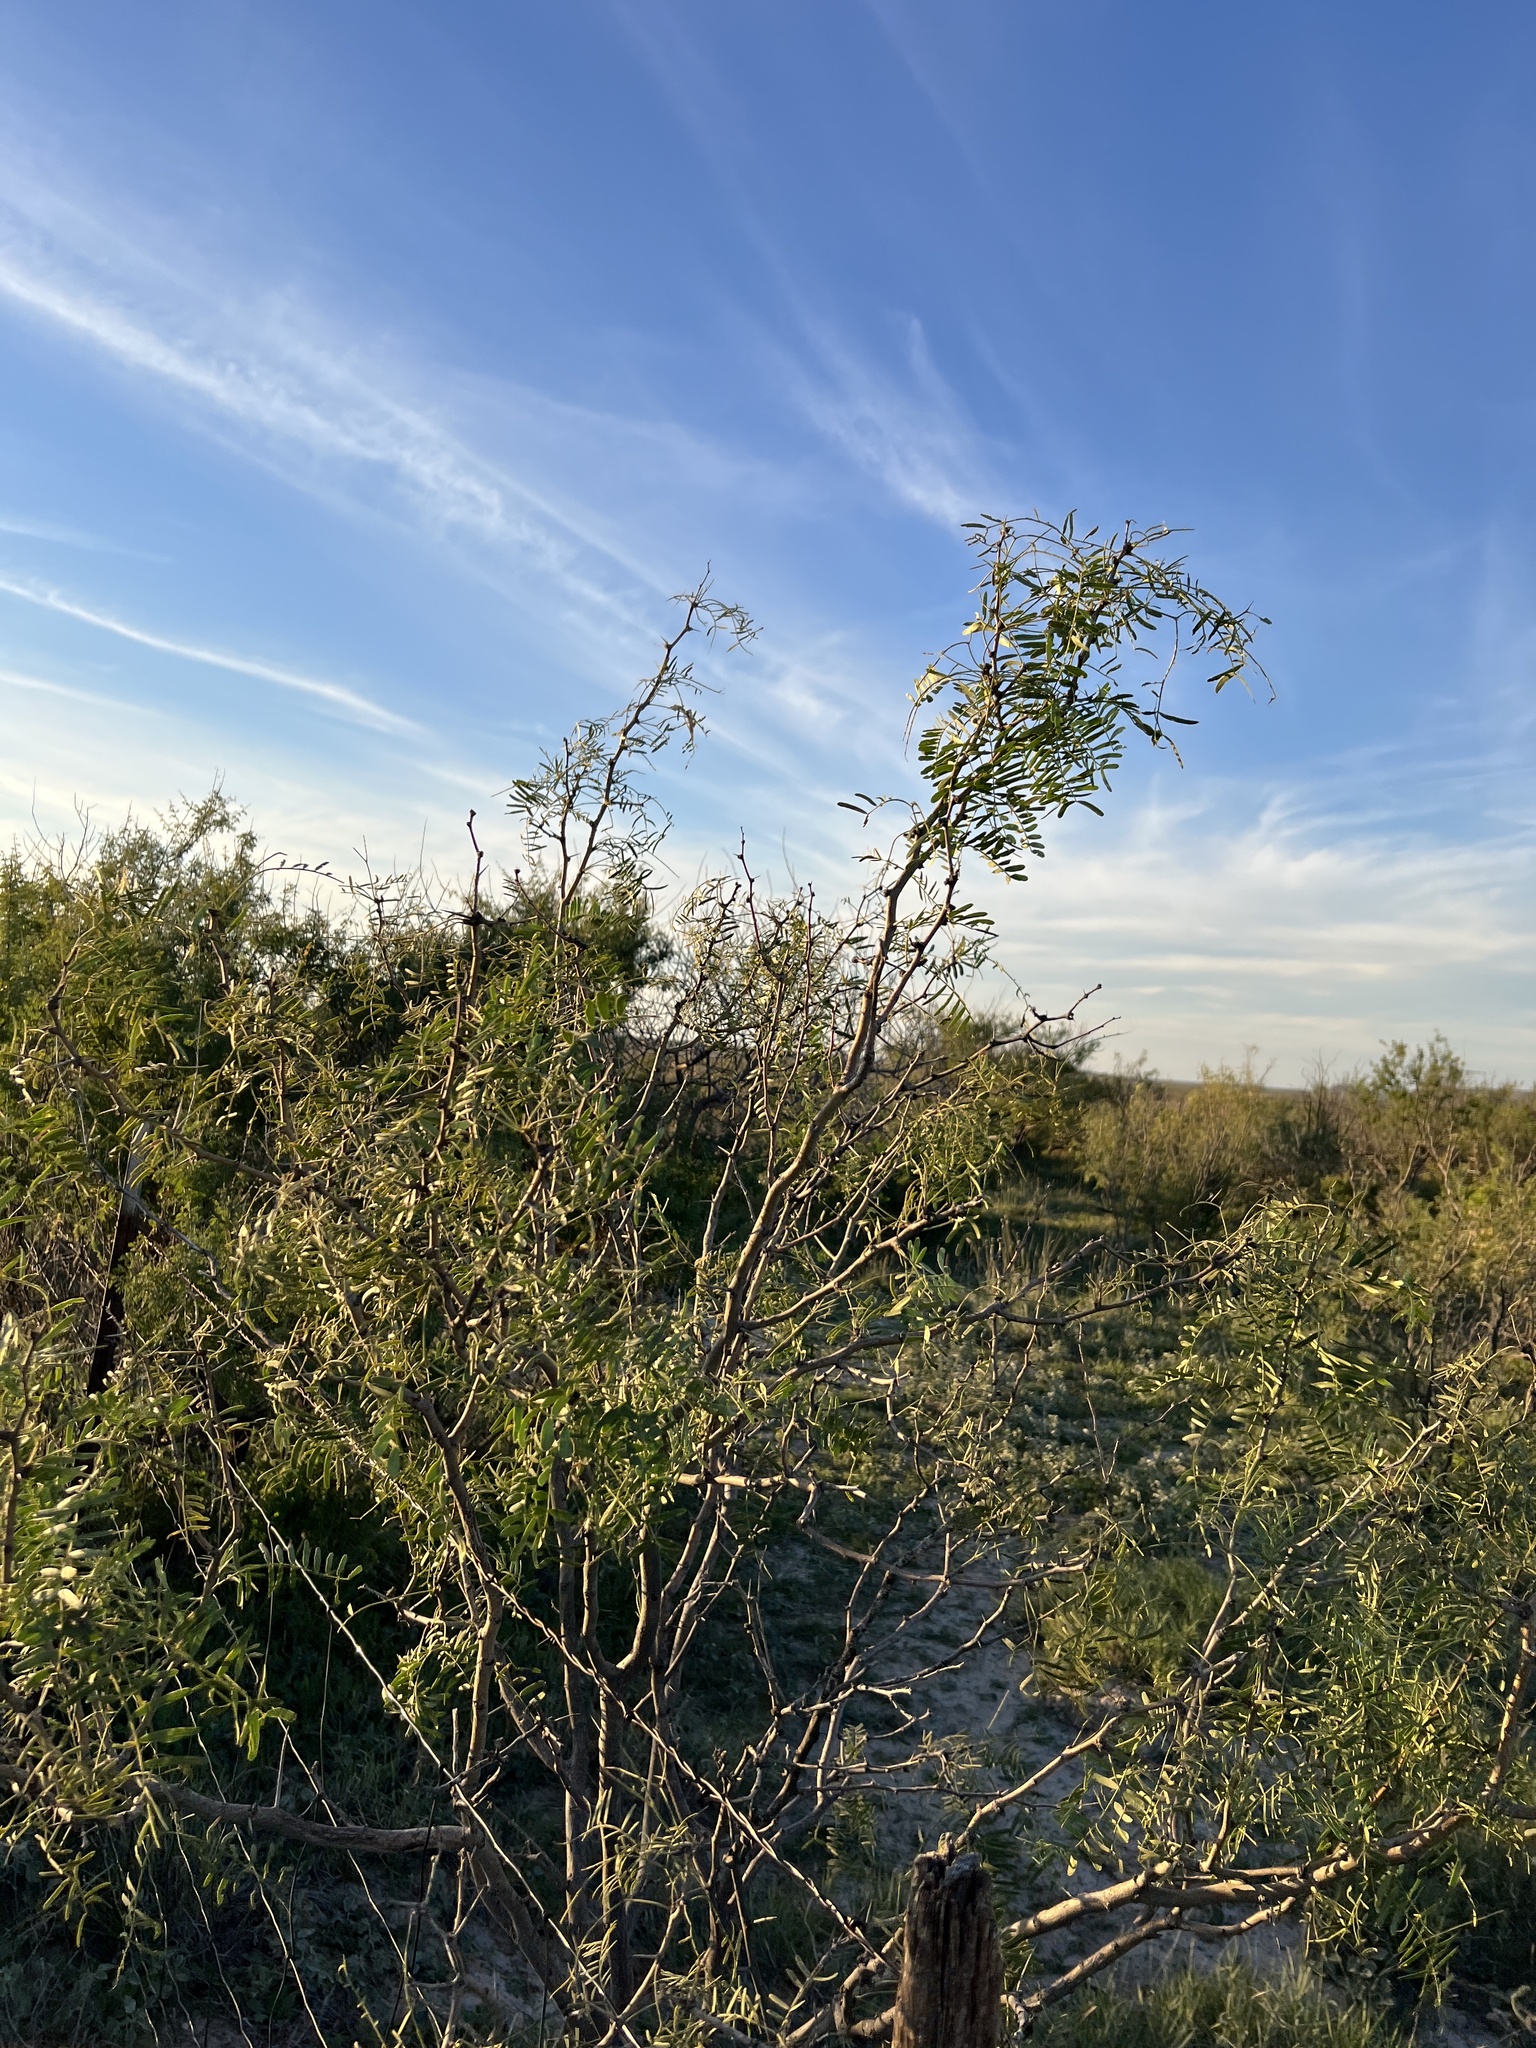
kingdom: Plantae
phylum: Tracheophyta
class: Magnoliopsida
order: Fabales
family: Fabaceae
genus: Prosopis
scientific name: Prosopis glandulosa
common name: Honey mesquite
